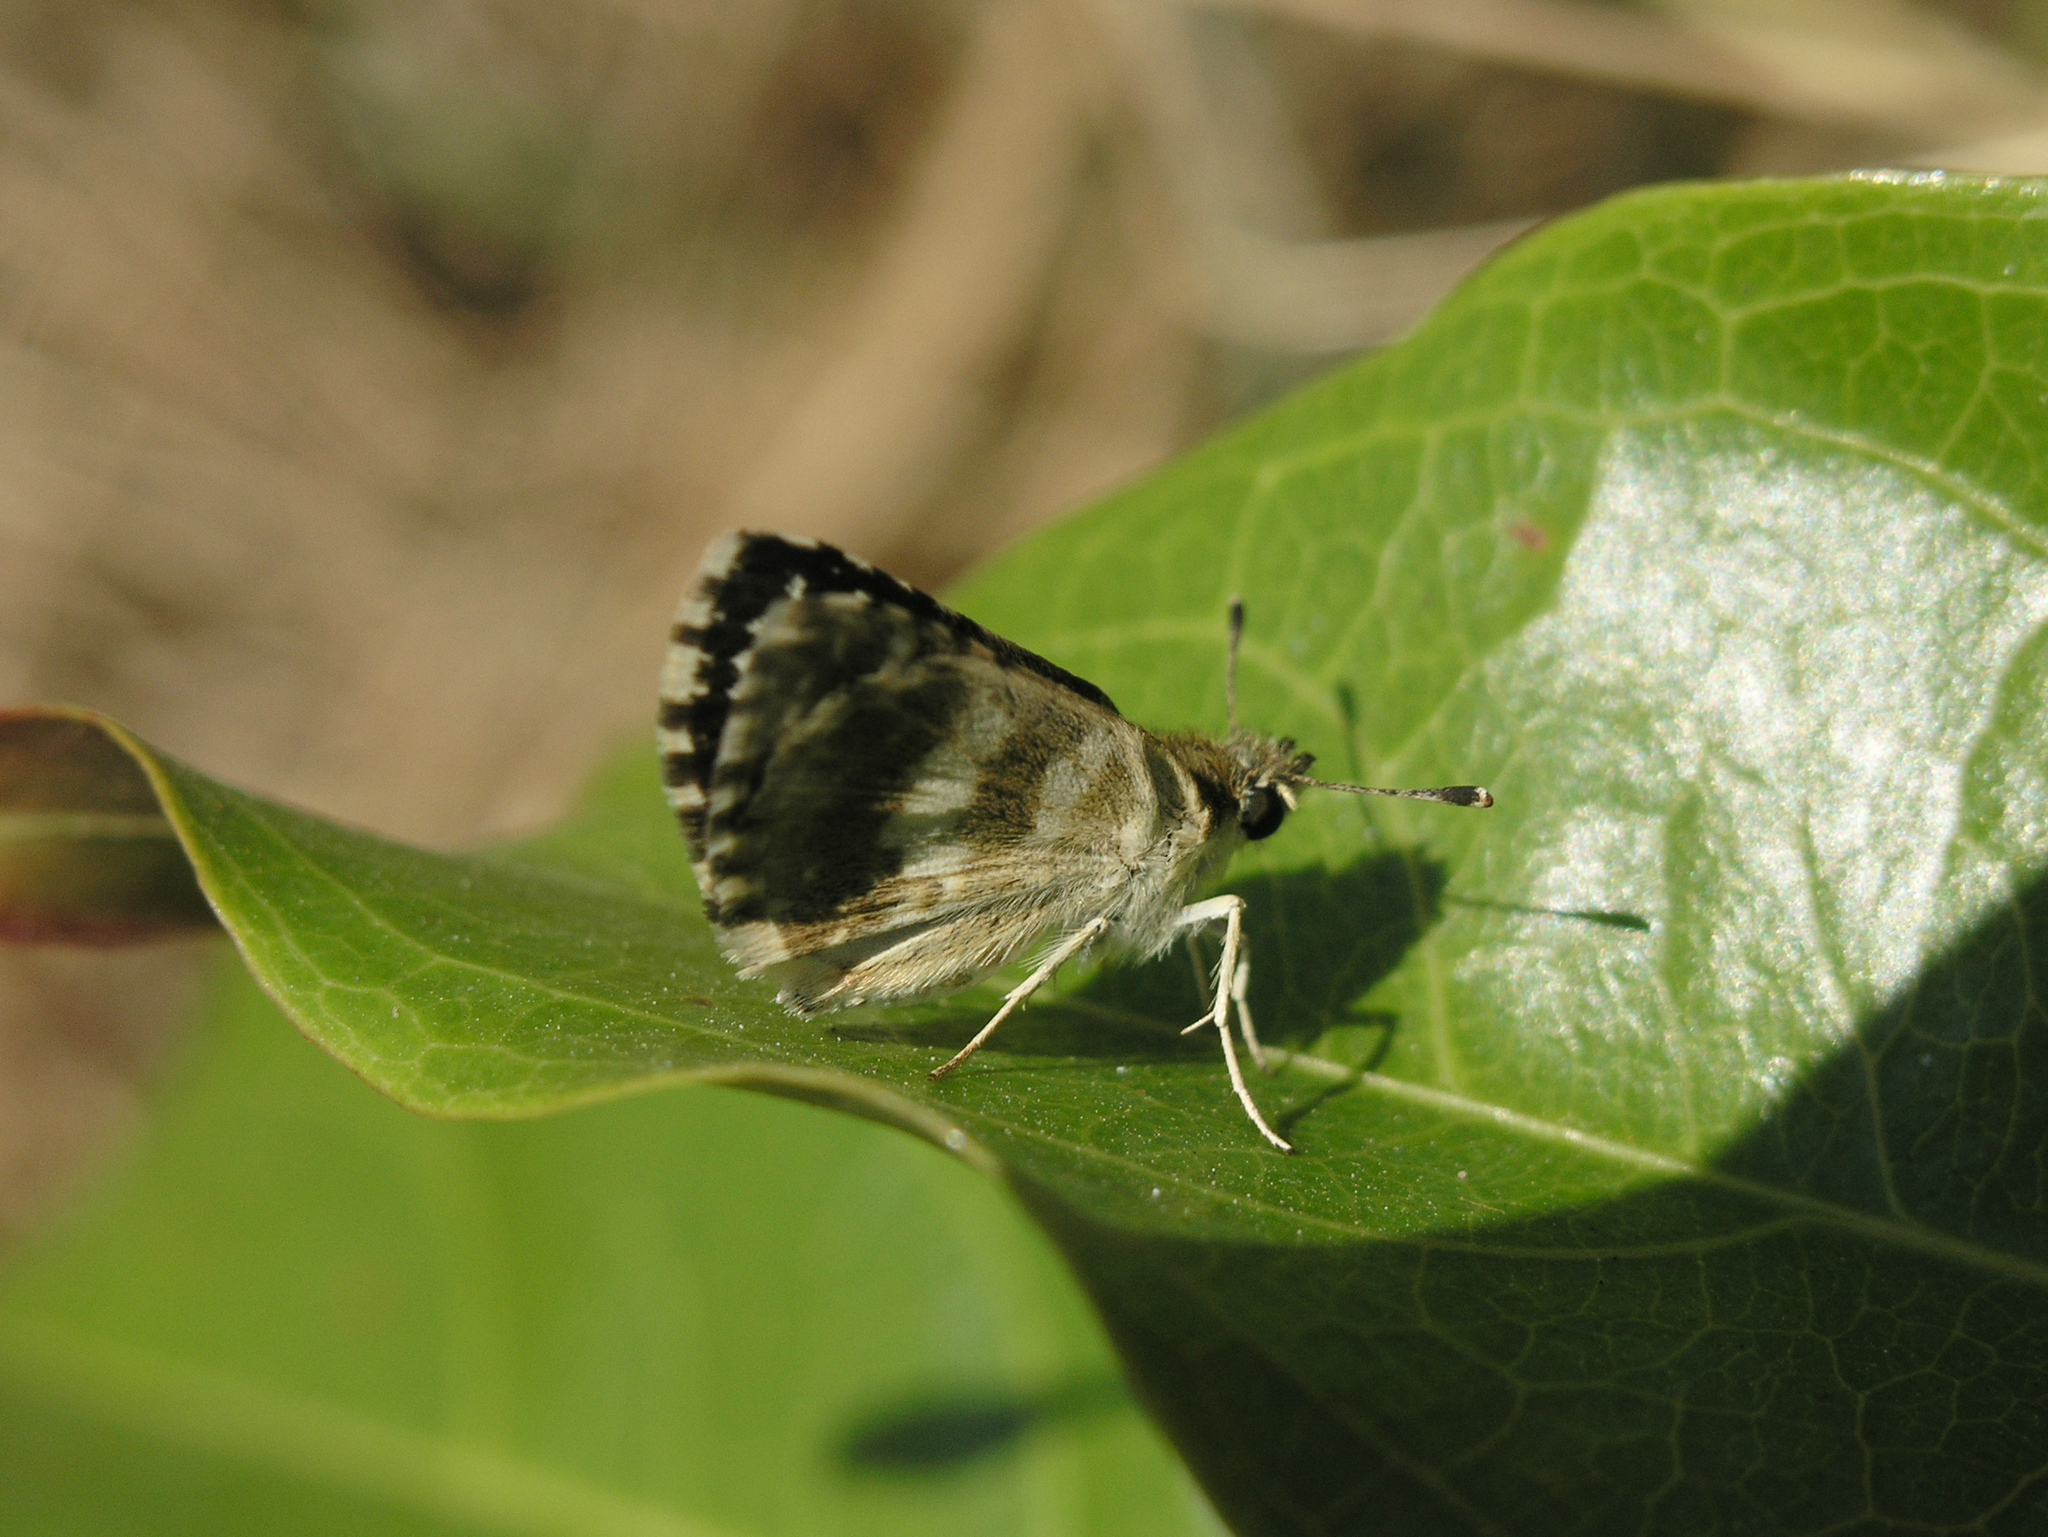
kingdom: Animalia
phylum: Arthropoda
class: Insecta
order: Lepidoptera
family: Hesperiidae
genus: Spialia
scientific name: Spialia galba
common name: Indian skipper
